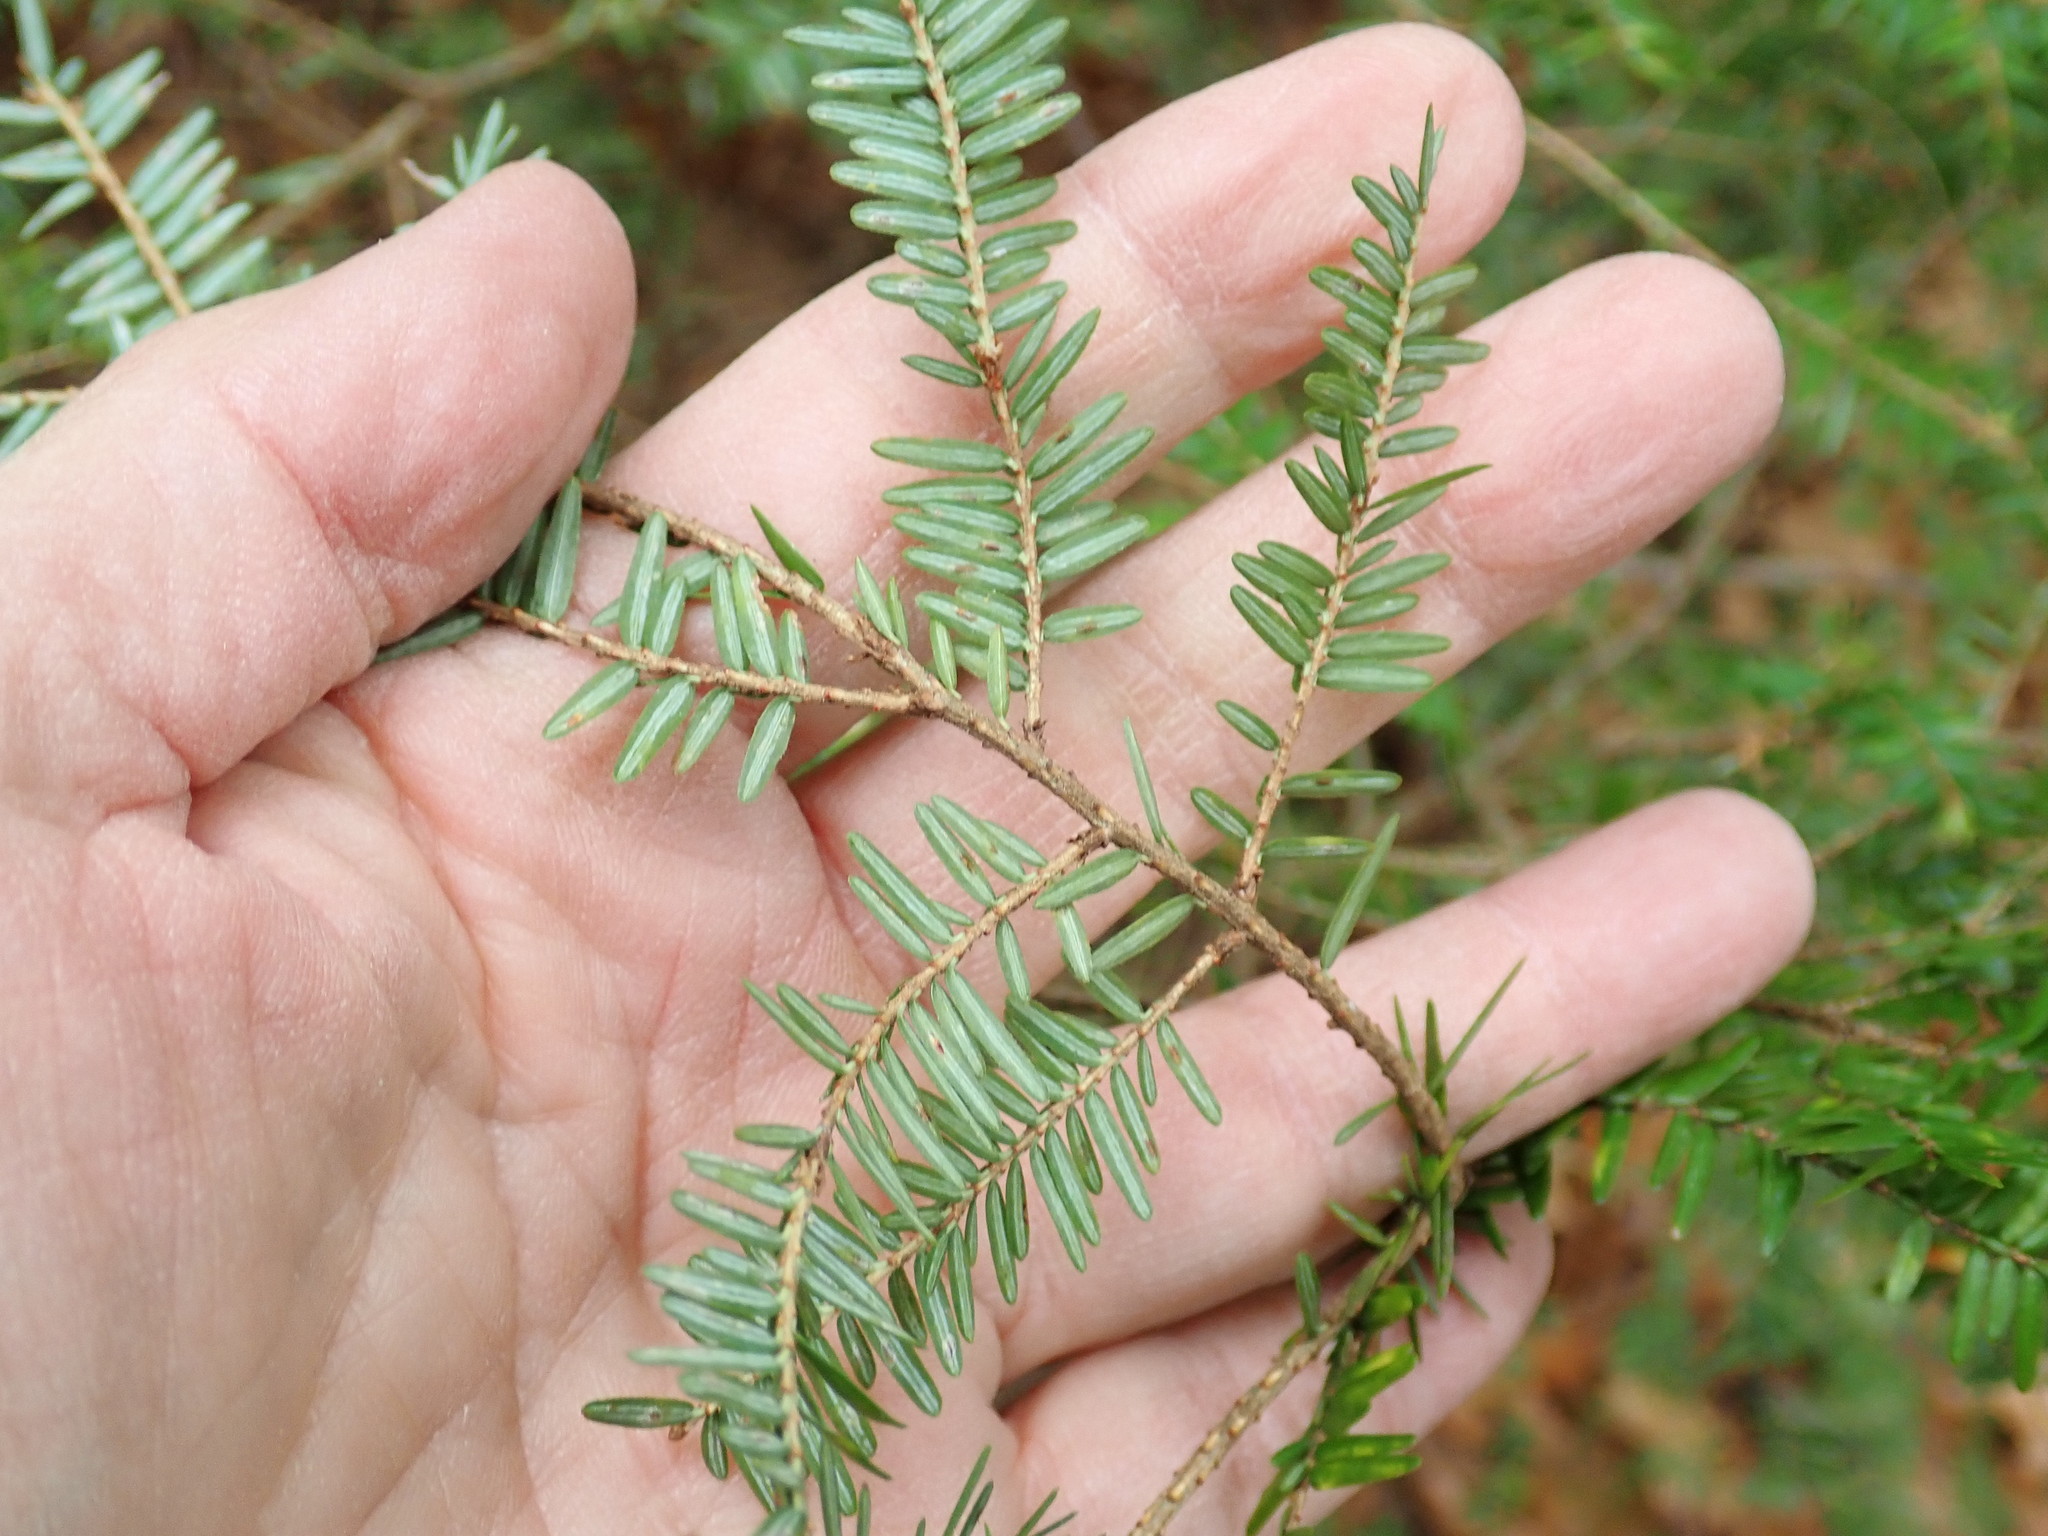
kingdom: Plantae
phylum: Tracheophyta
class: Pinopsida
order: Pinales
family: Pinaceae
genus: Tsuga
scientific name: Tsuga canadensis
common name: Eastern hemlock
